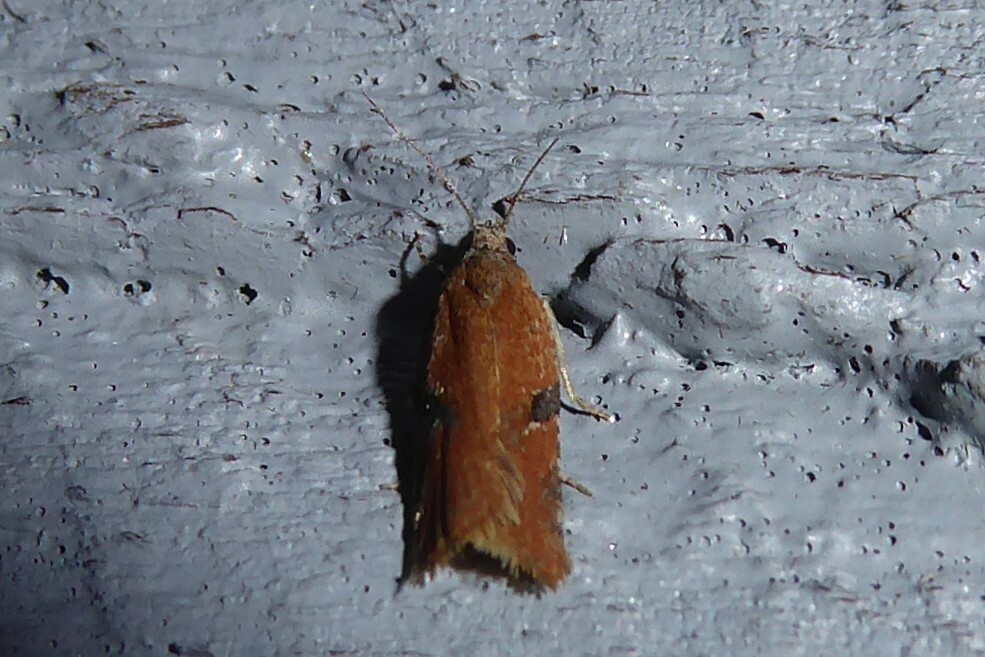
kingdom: Animalia
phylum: Arthropoda
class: Insecta
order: Lepidoptera
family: Tortricidae
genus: Capua
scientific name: Capua semiferana
